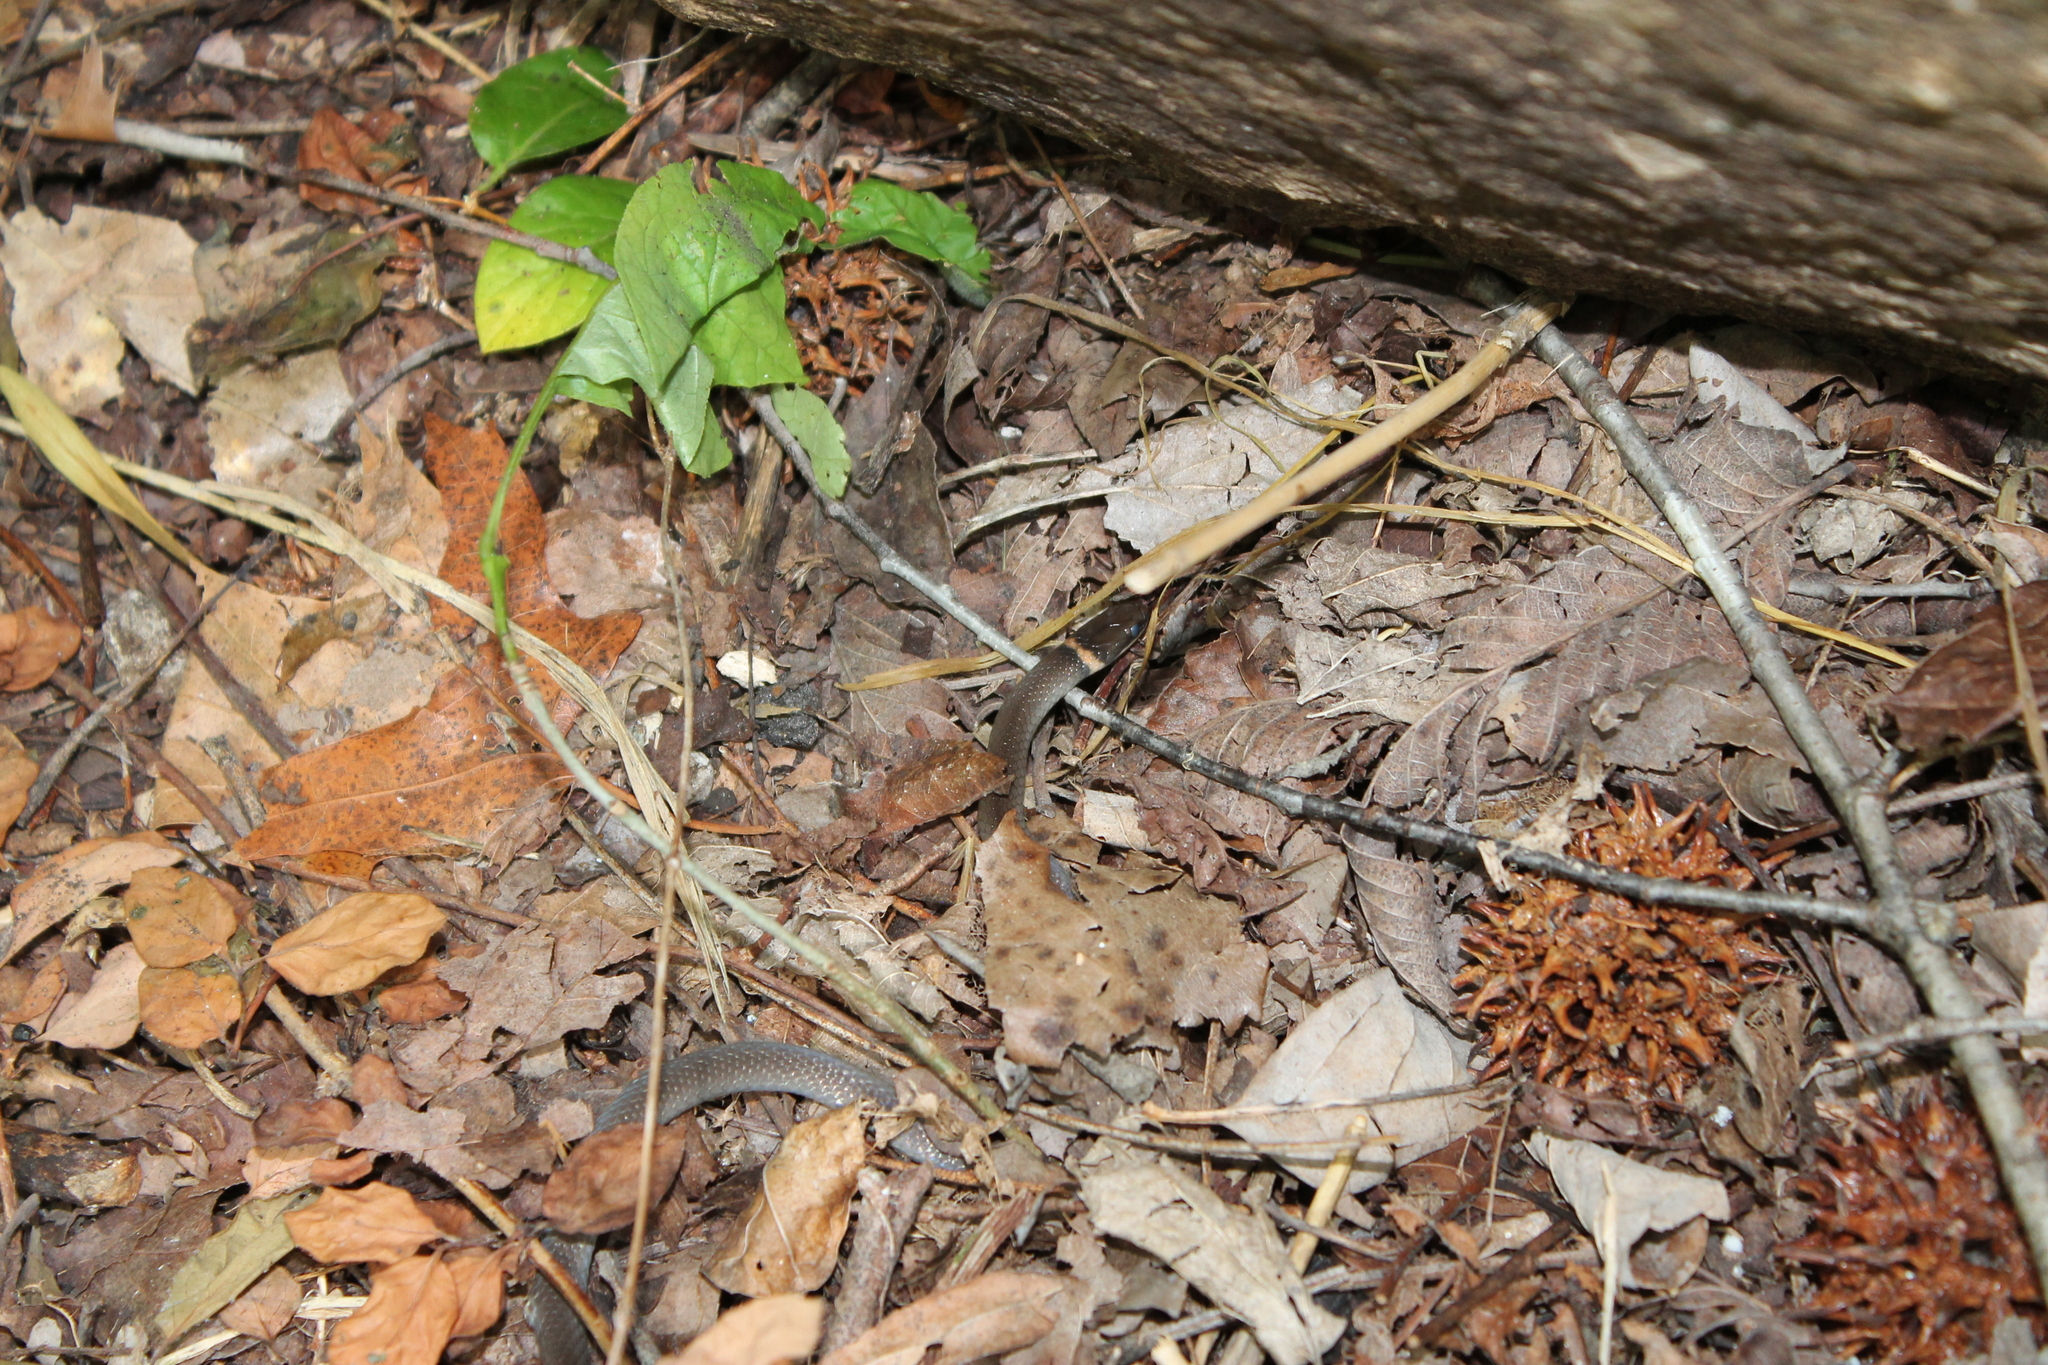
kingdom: Animalia
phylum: Chordata
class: Squamata
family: Colubridae
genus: Diadophis
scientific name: Diadophis punctatus
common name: Ringneck snake
